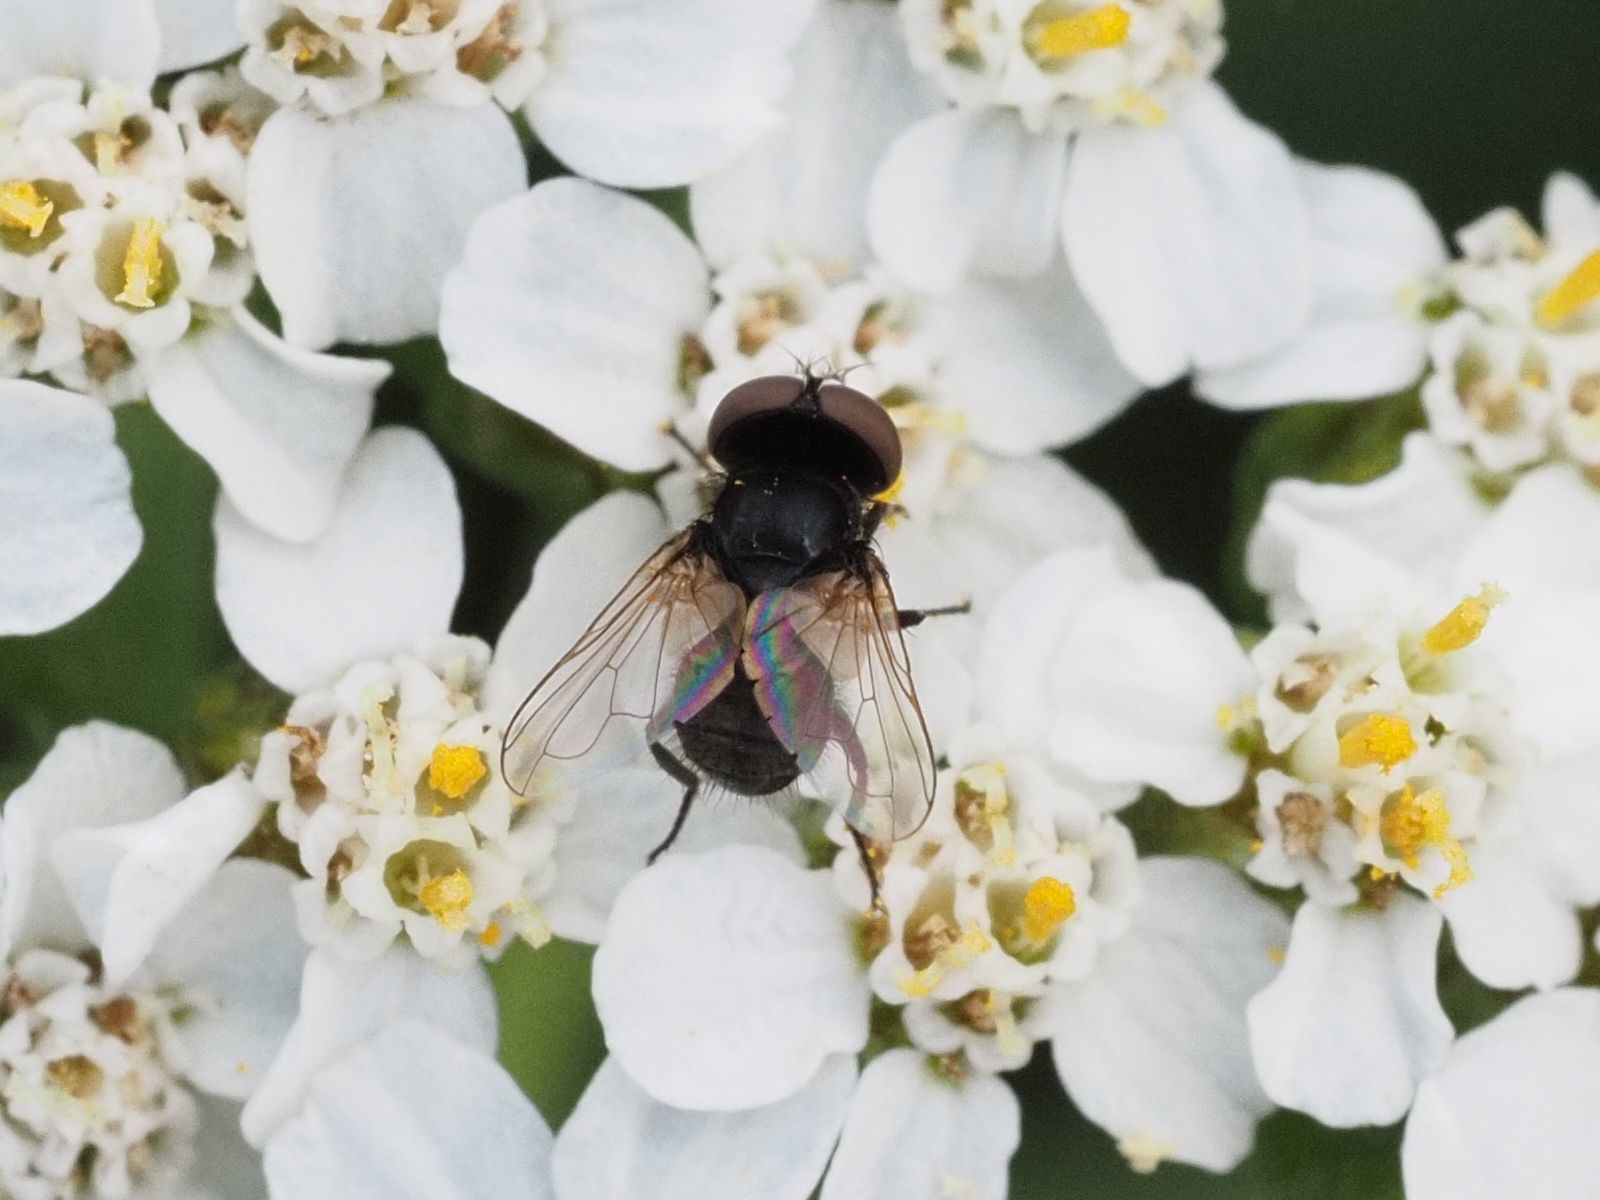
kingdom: Animalia
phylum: Arthropoda
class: Insecta
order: Diptera
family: Tachinidae
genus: Phasia
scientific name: Phasia pusilla
